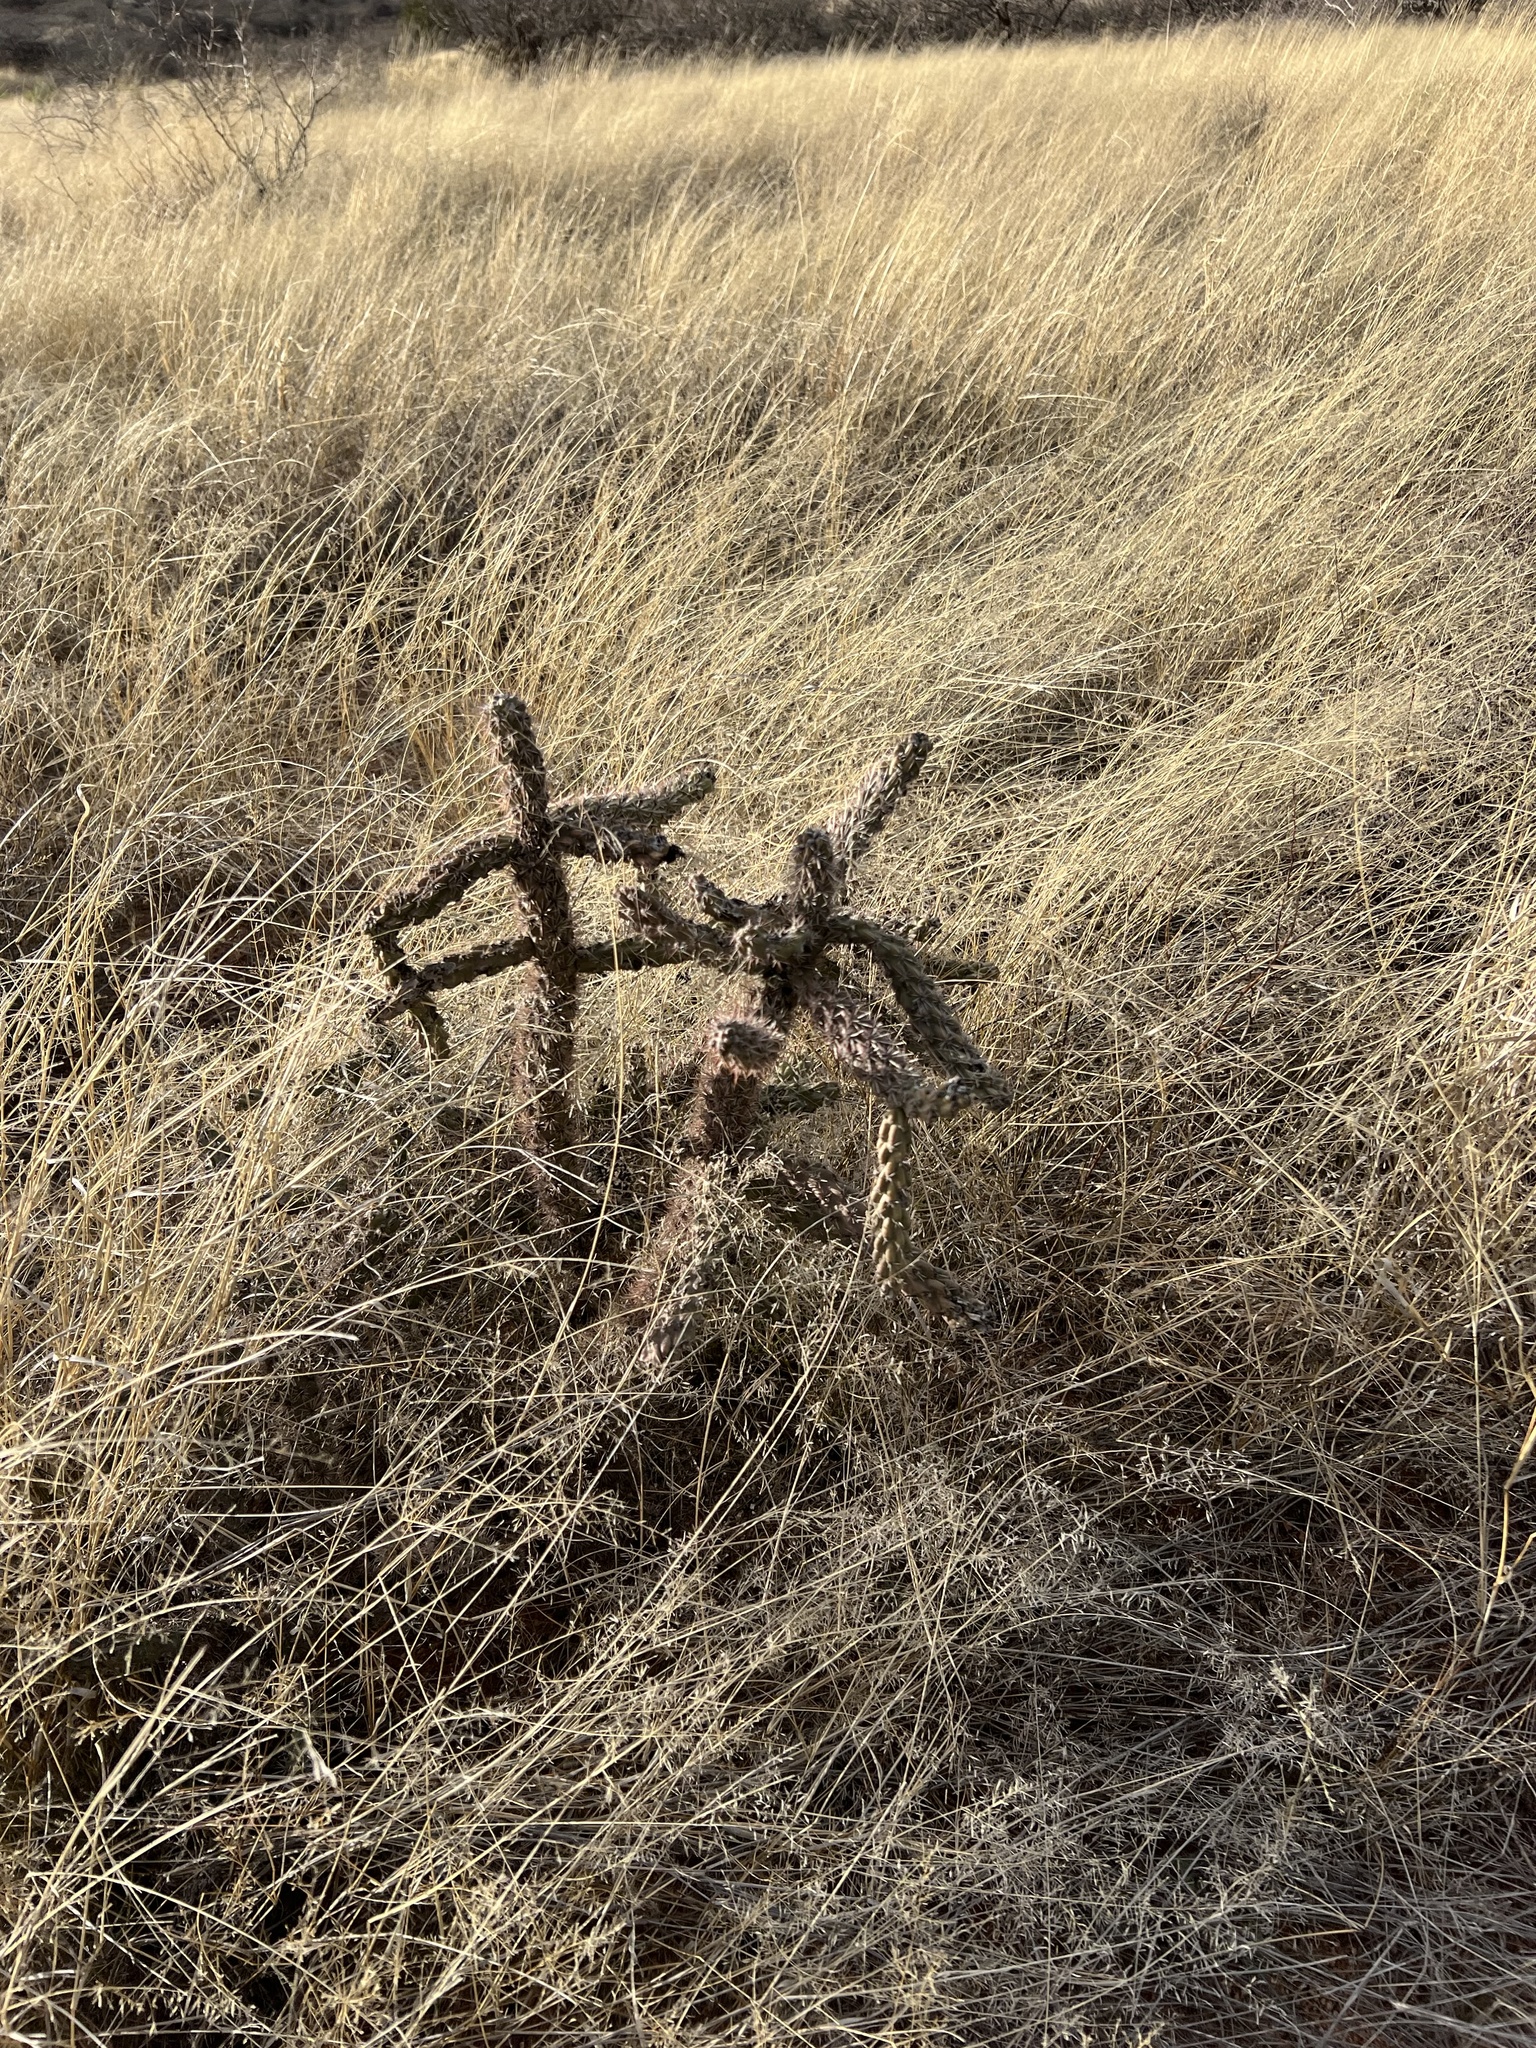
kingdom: Plantae
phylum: Tracheophyta
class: Magnoliopsida
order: Caryophyllales
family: Cactaceae
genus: Cylindropuntia
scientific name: Cylindropuntia imbricata
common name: Candelabrum cactus
